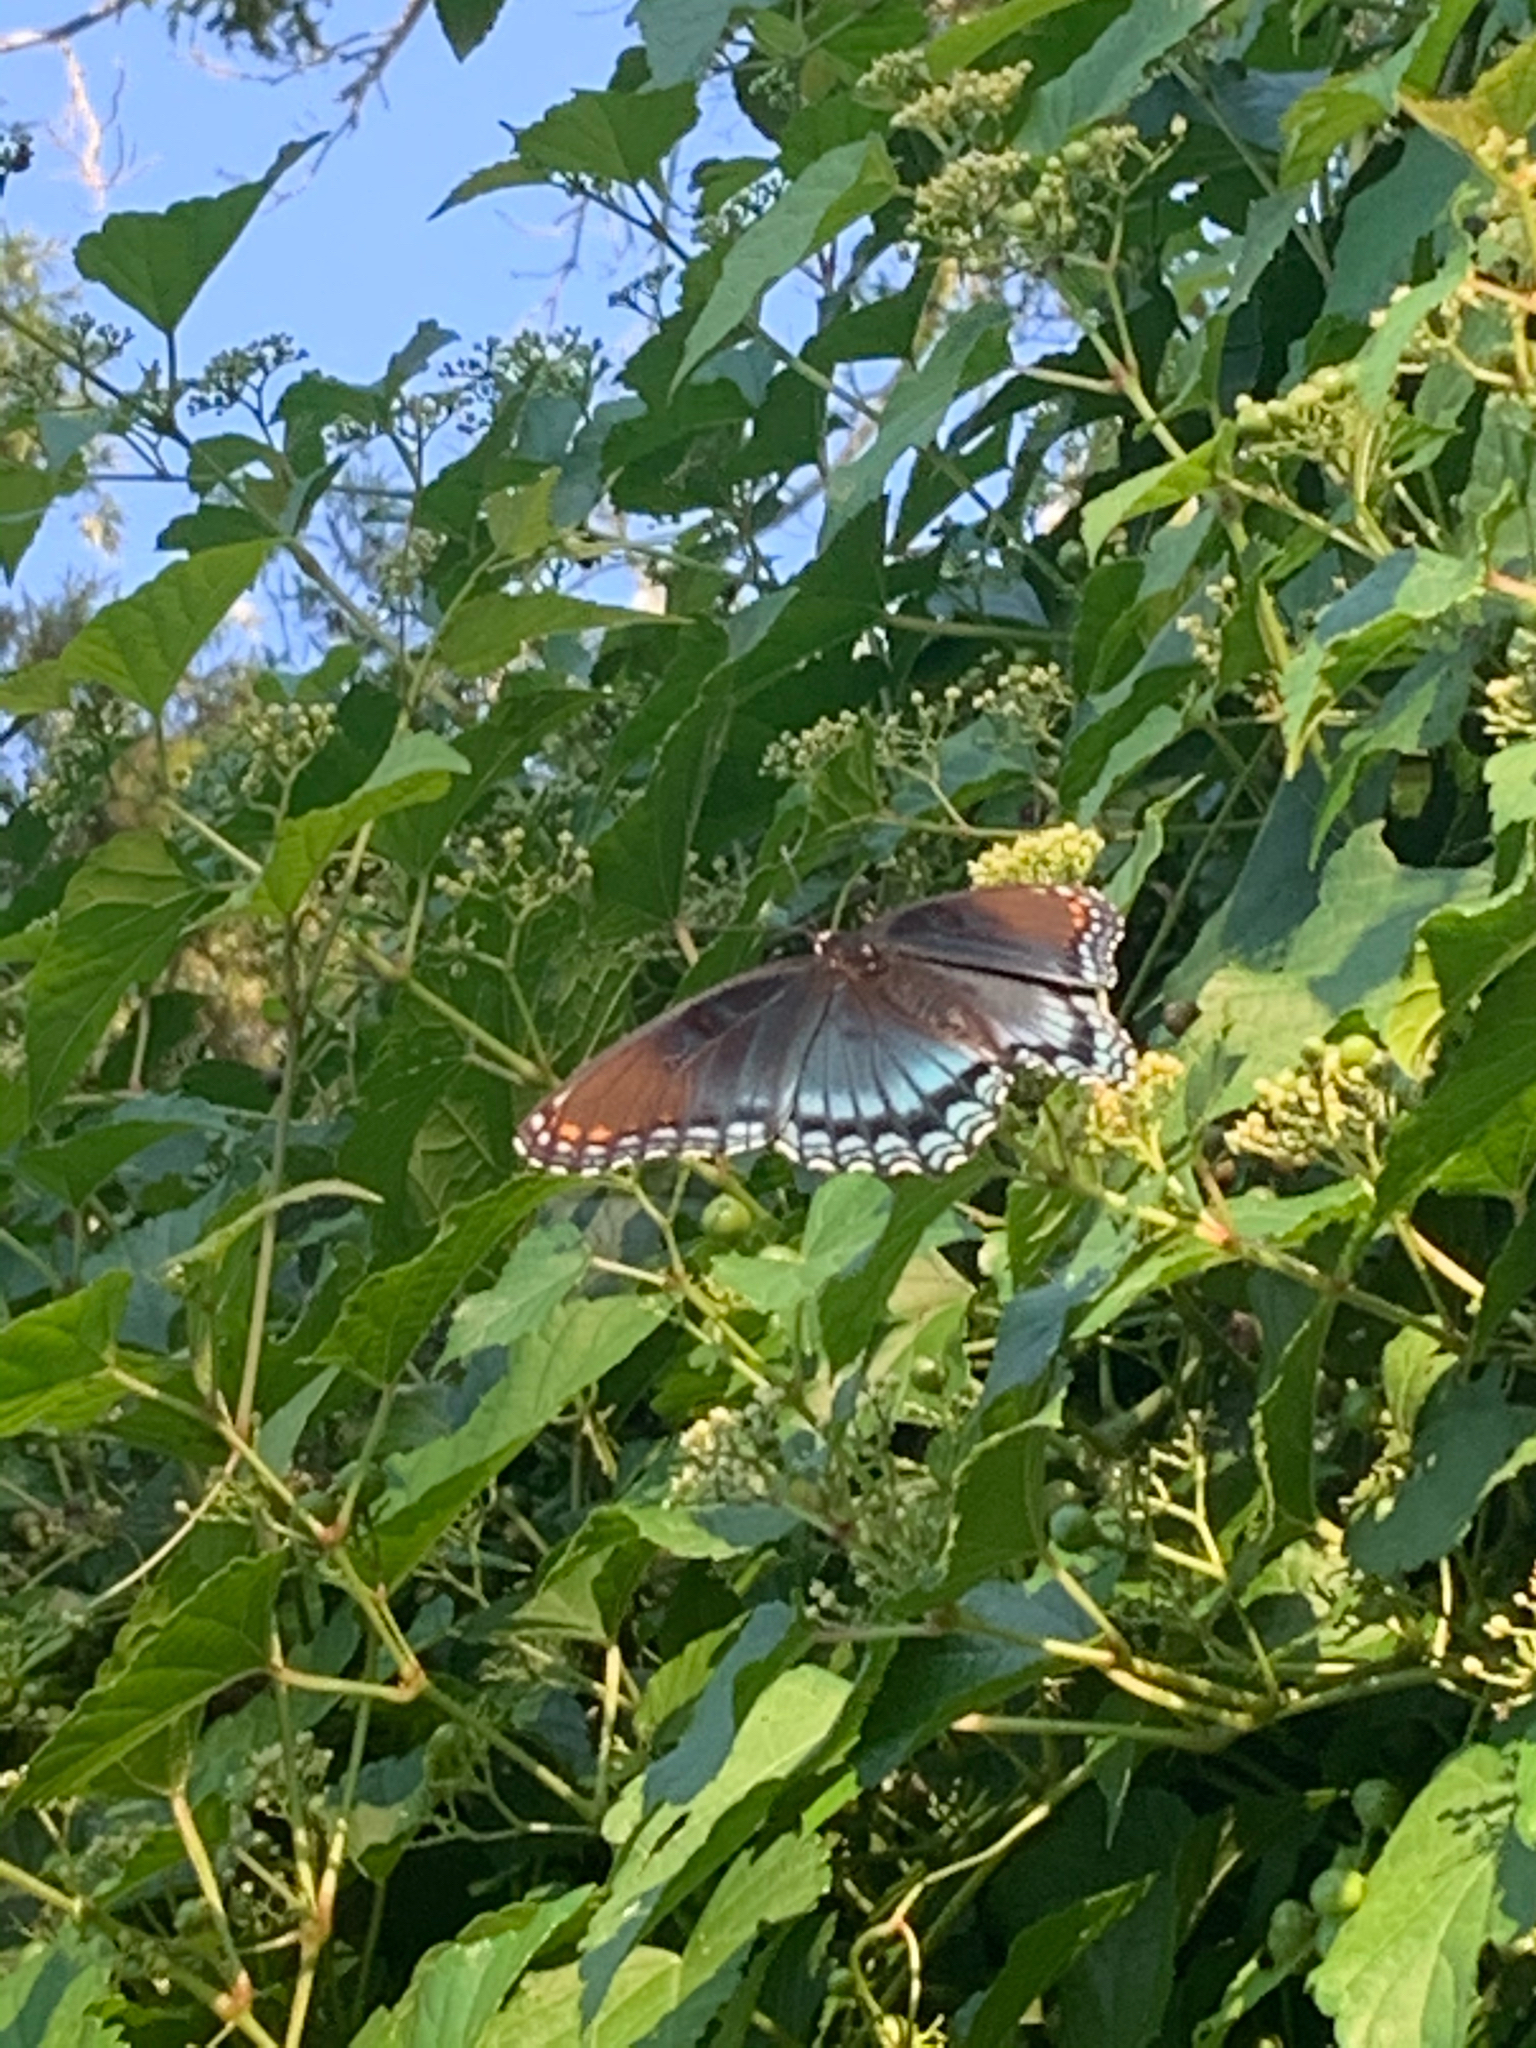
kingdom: Animalia
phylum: Arthropoda
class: Insecta
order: Lepidoptera
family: Nymphalidae
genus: Limenitis
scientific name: Limenitis astyanax
